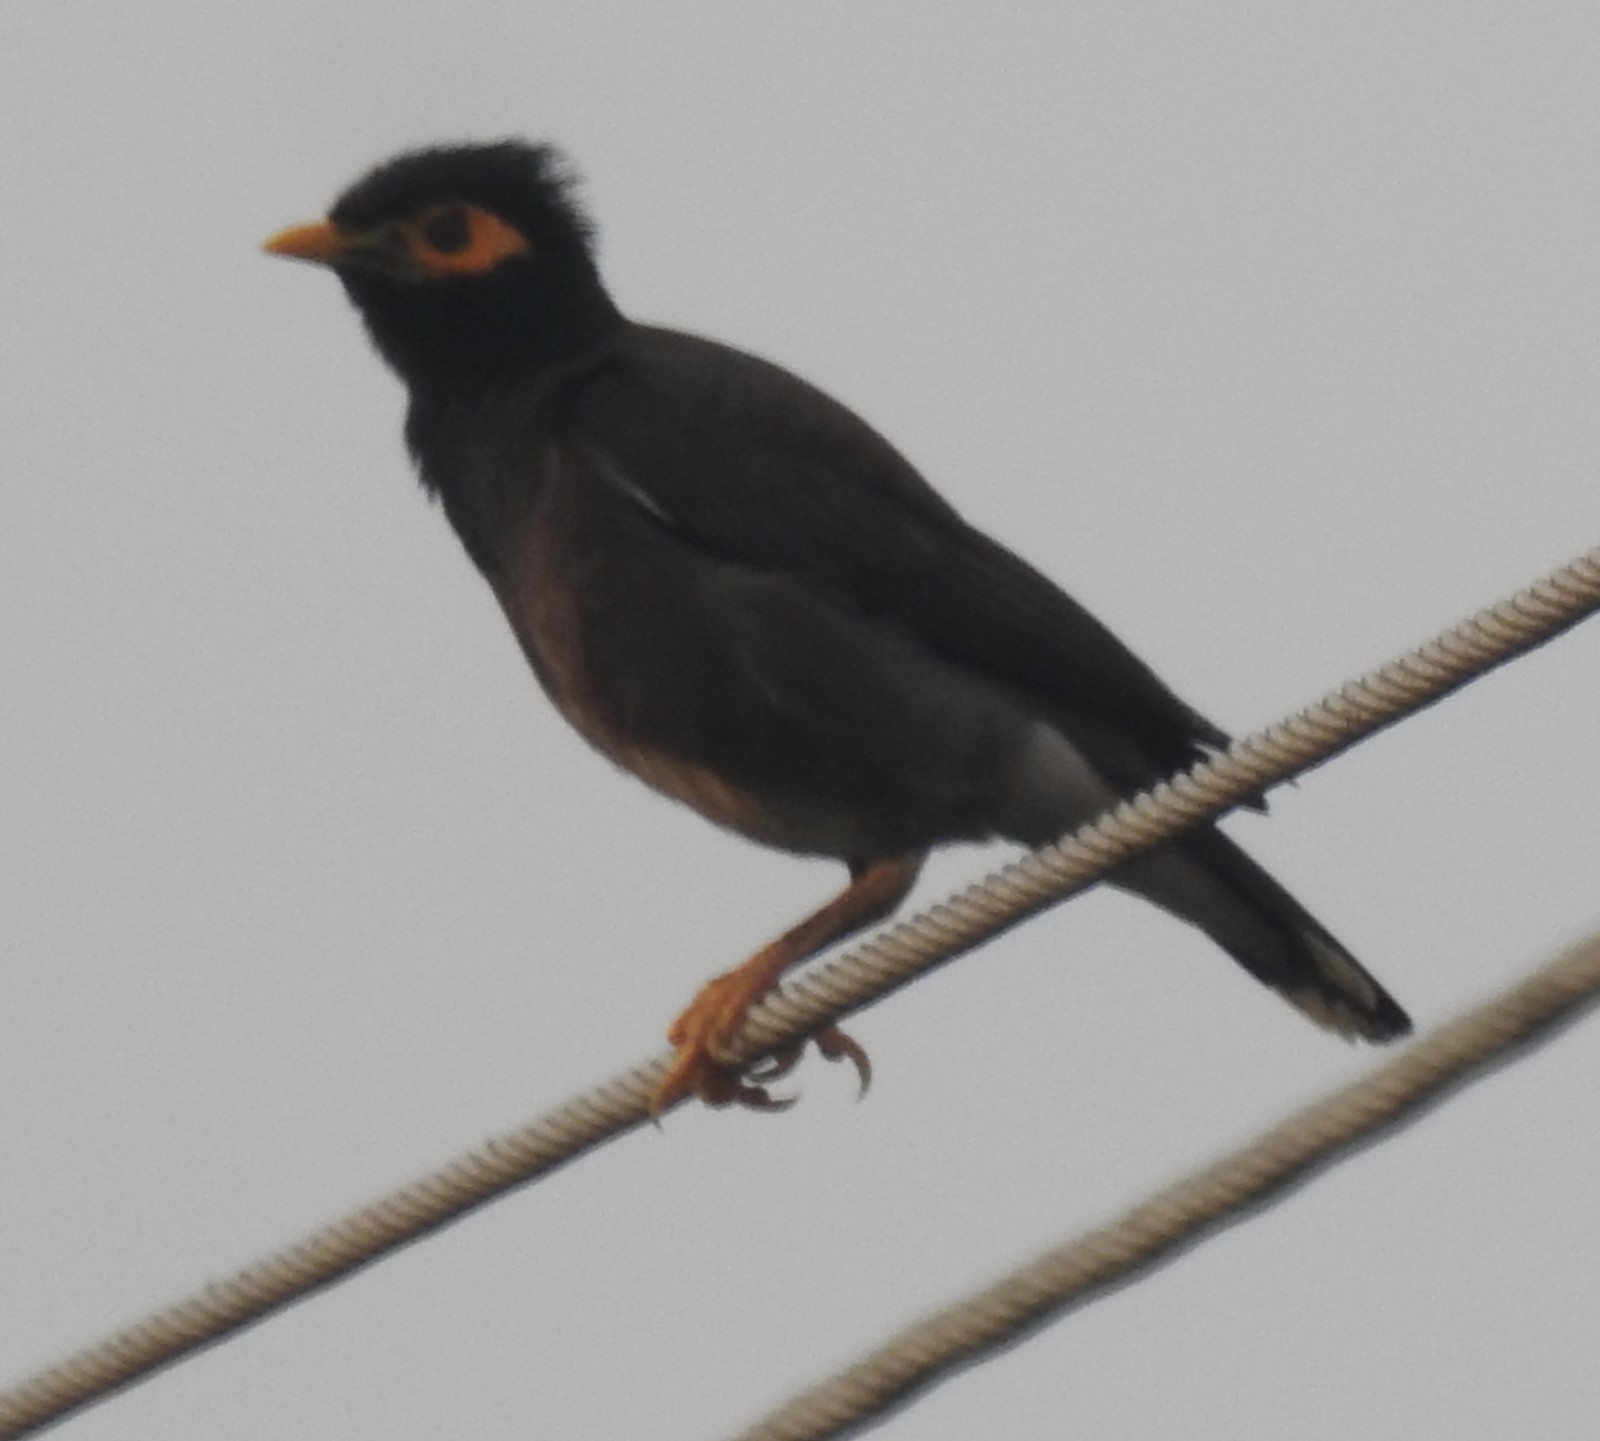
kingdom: Animalia
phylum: Chordata
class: Aves
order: Passeriformes
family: Sturnidae
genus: Acridotheres
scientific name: Acridotheres tristis
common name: Common myna
